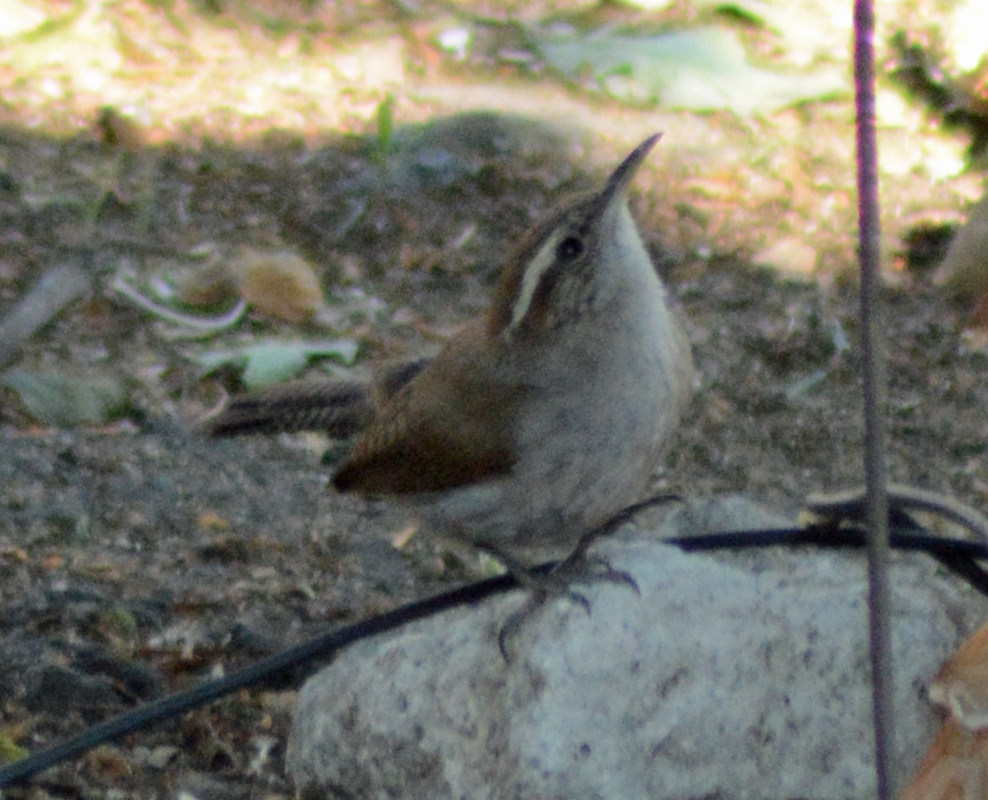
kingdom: Animalia
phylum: Chordata
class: Aves
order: Passeriformes
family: Troglodytidae
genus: Thryomanes
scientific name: Thryomanes bewickii
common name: Bewick's wren
